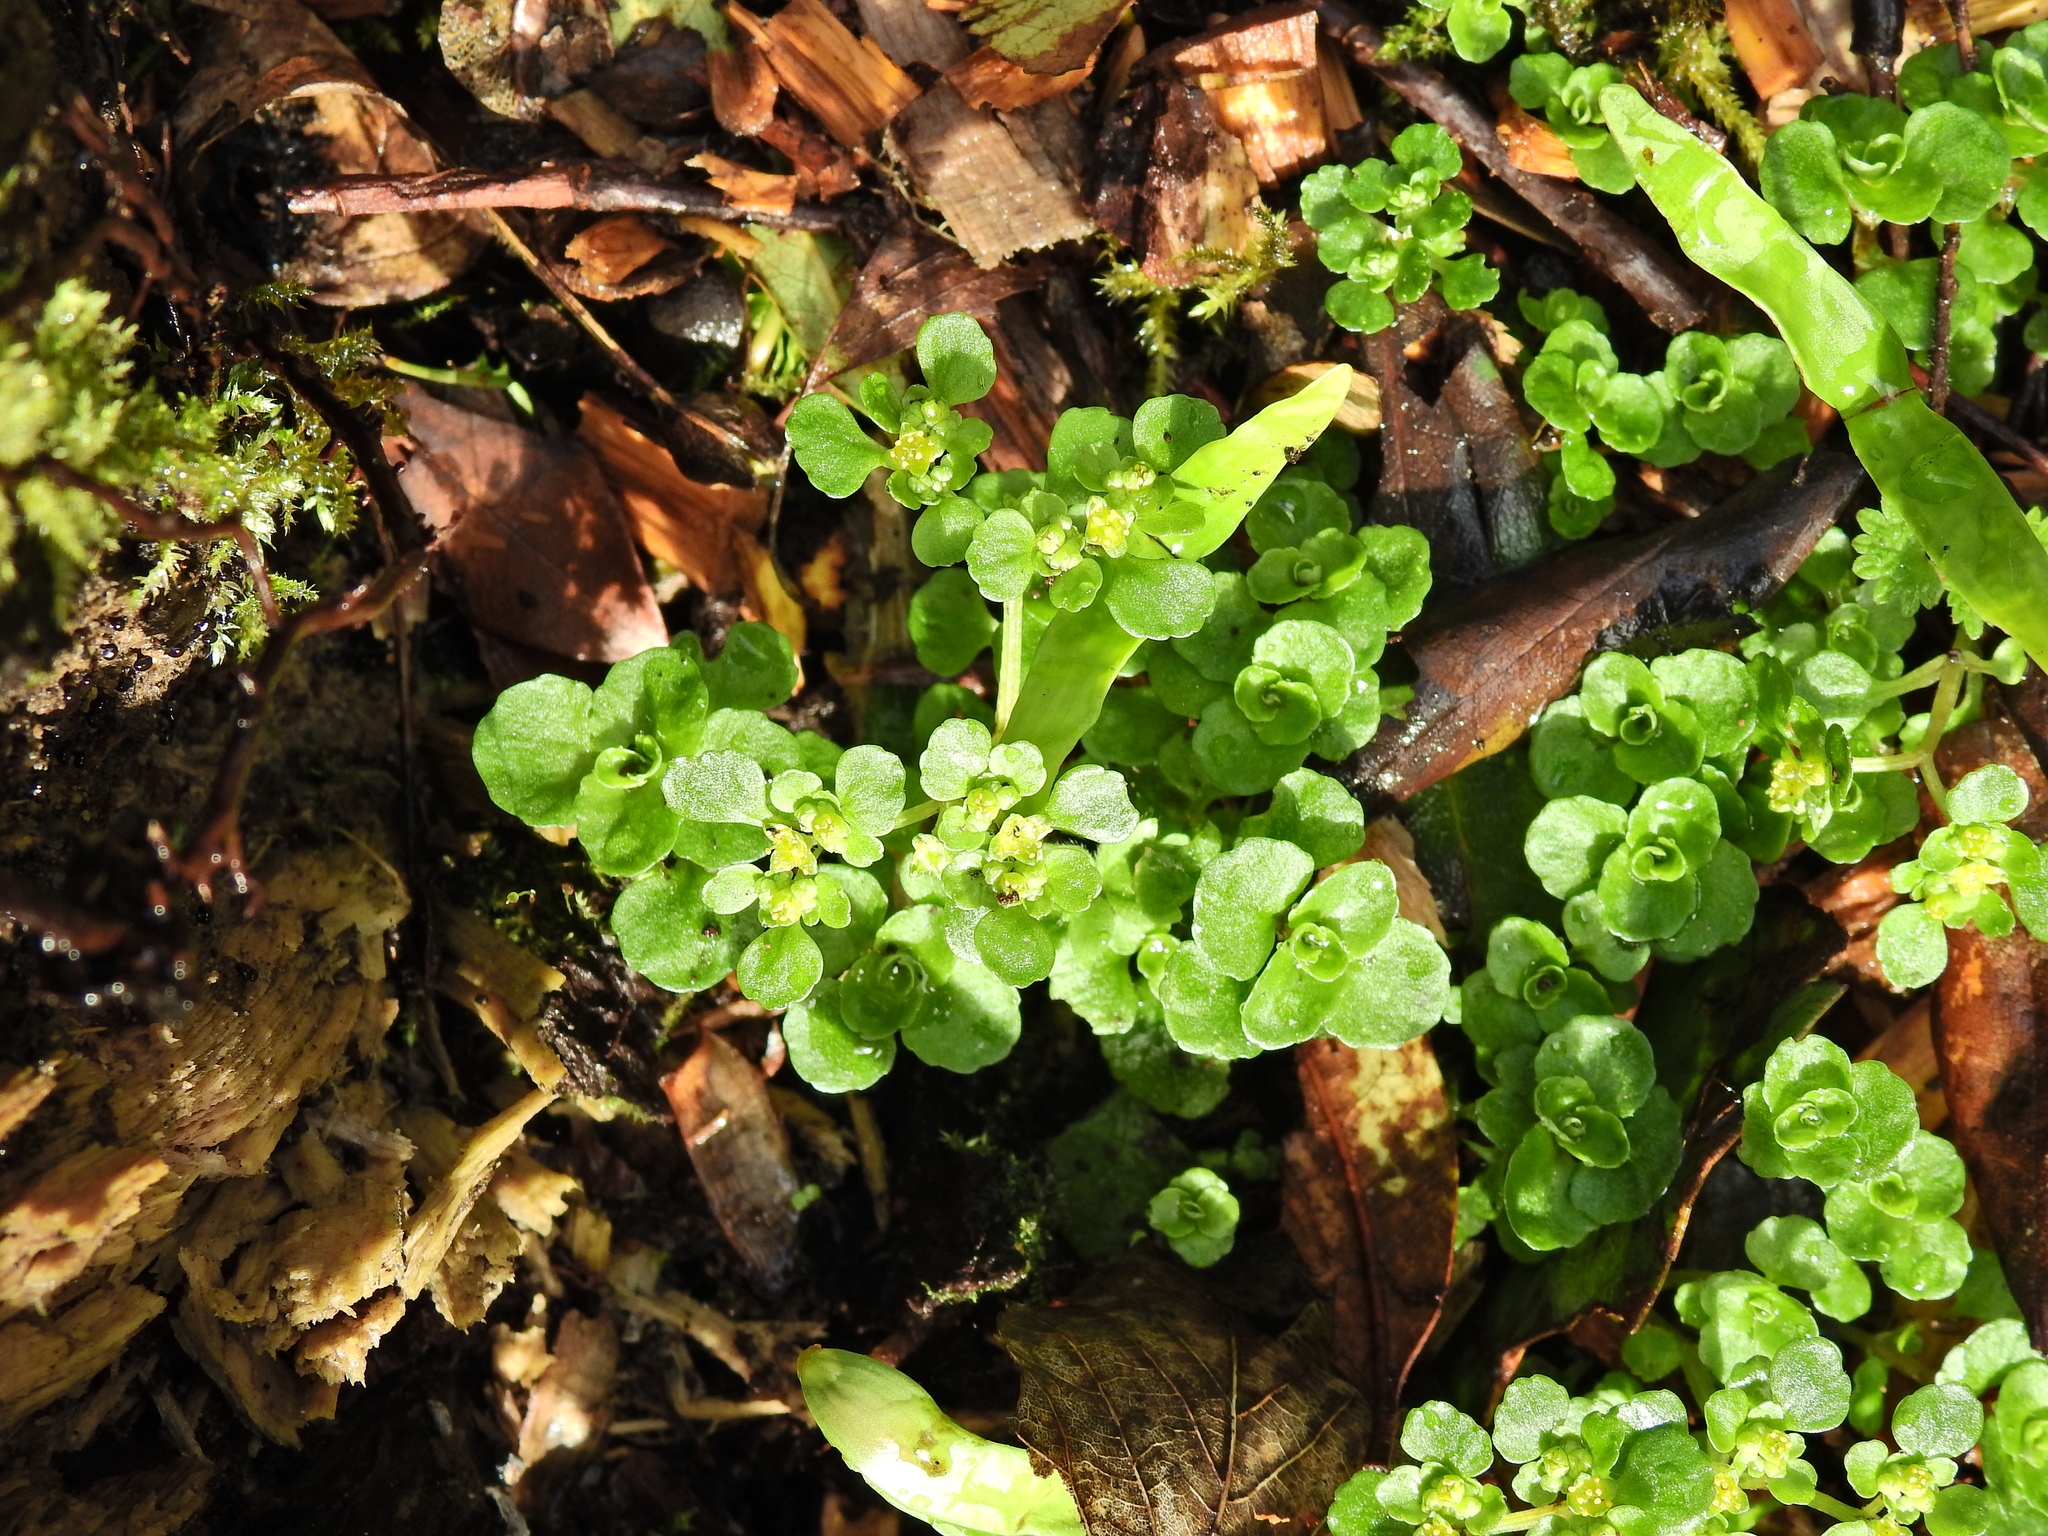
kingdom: Plantae
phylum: Tracheophyta
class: Magnoliopsida
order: Saxifragales
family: Saxifragaceae
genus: Chrysosplenium
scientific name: Chrysosplenium oppositifolium
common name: Opposite-leaved golden-saxifrage
